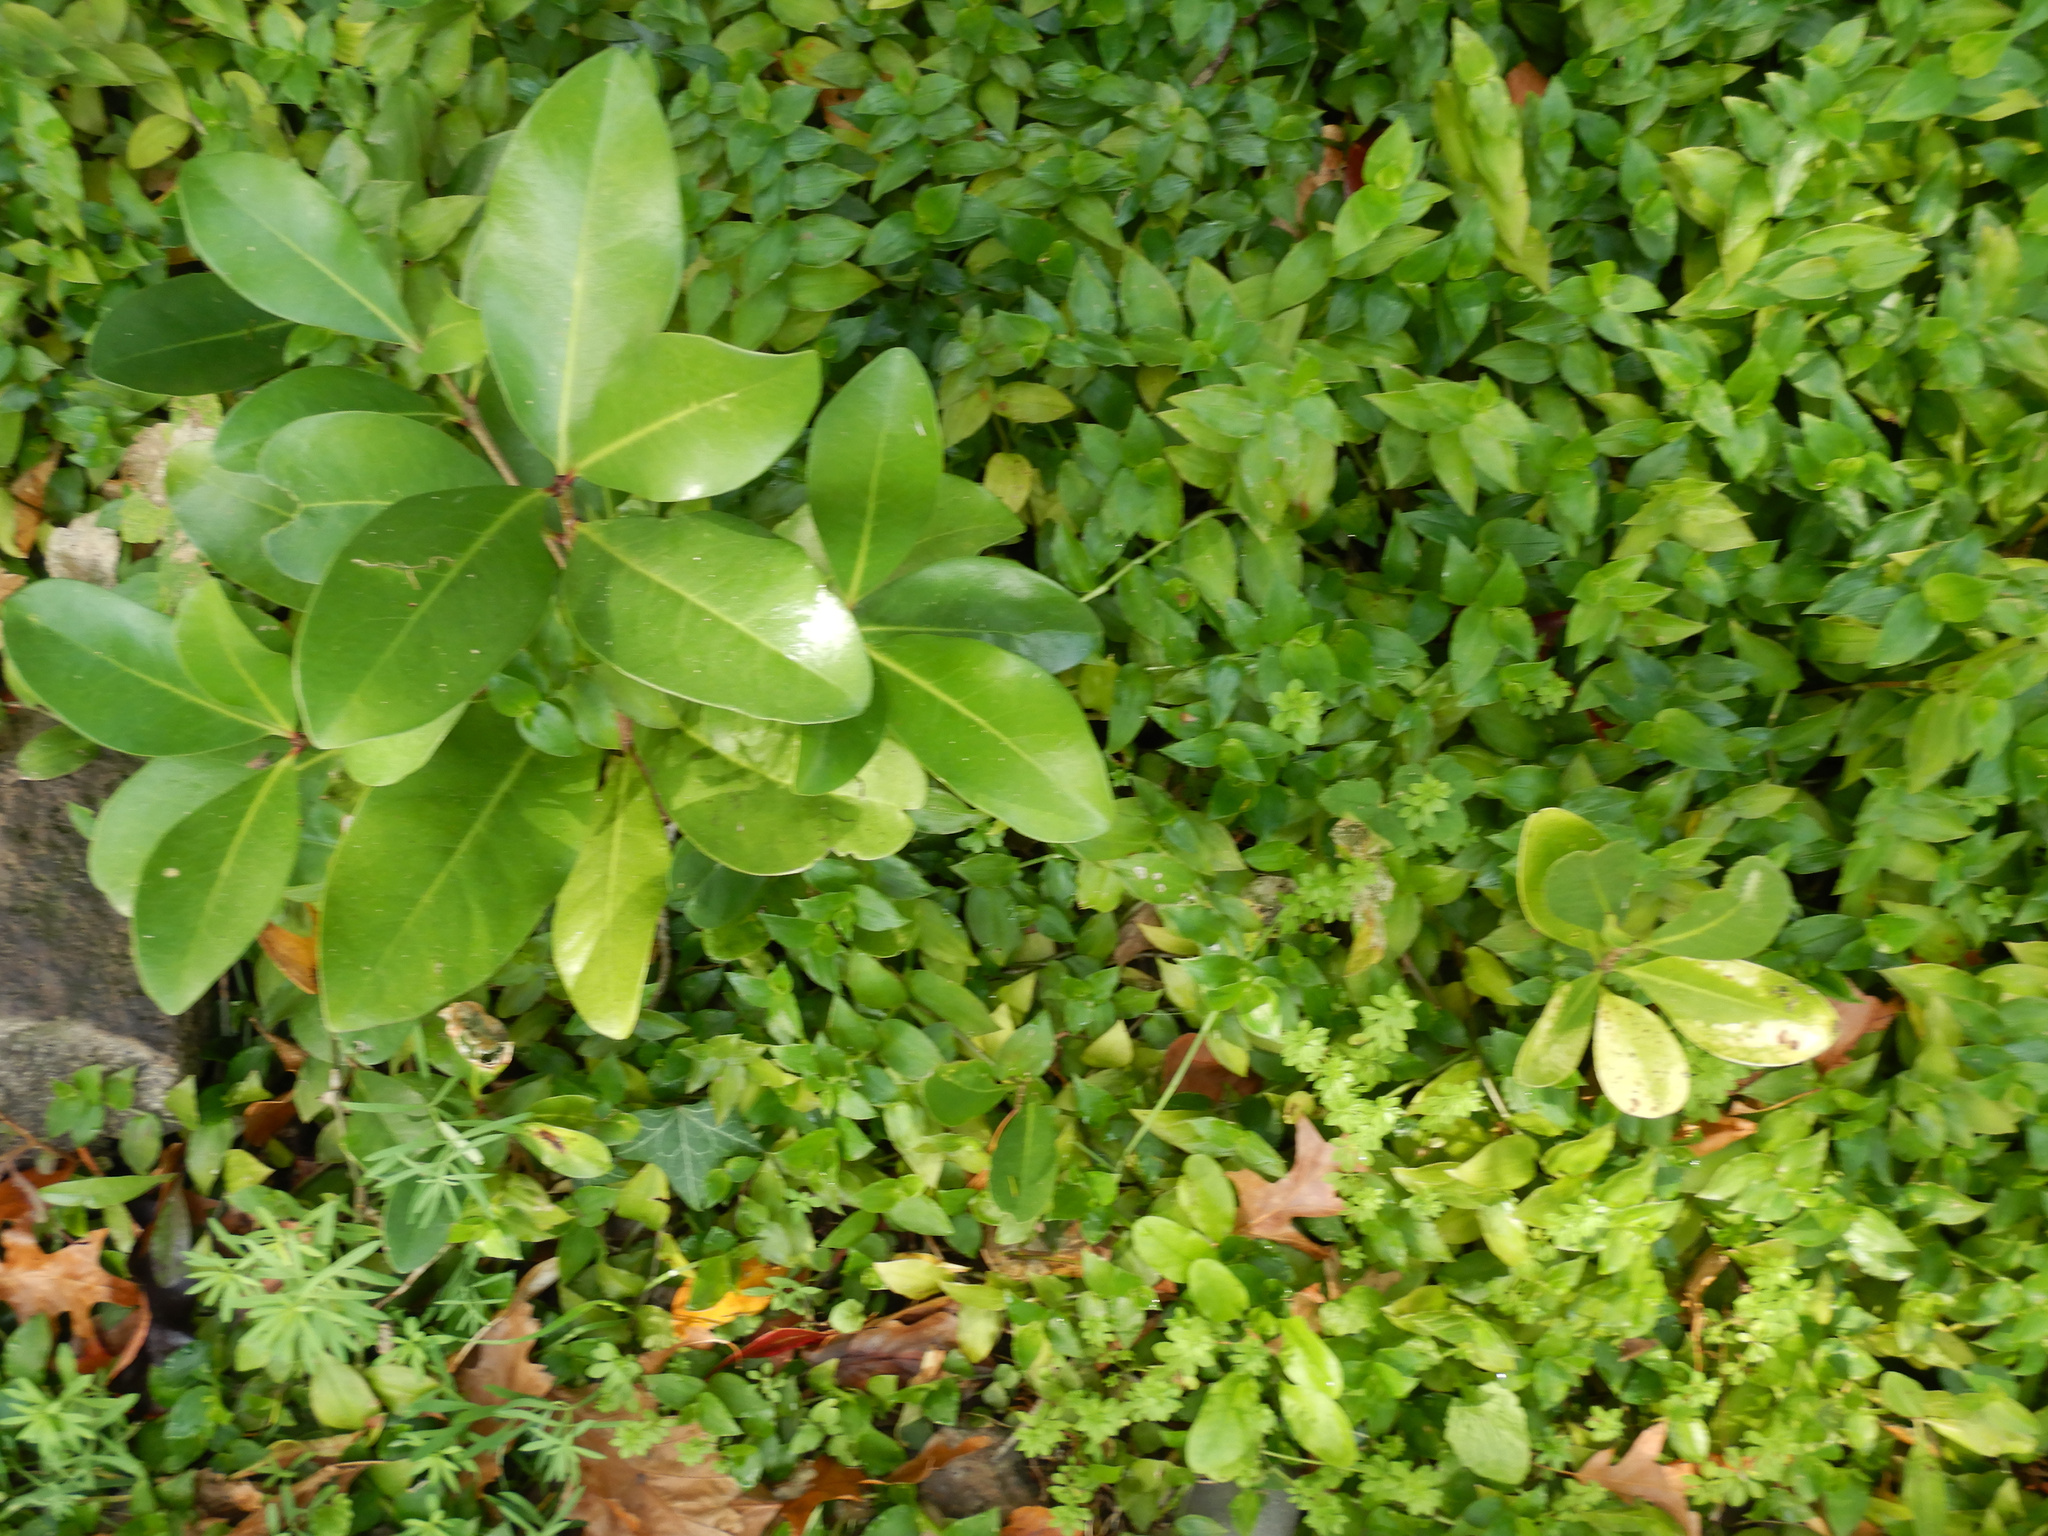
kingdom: Plantae
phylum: Tracheophyta
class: Magnoliopsida
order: Cucurbitales
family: Corynocarpaceae
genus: Corynocarpus
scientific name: Corynocarpus laevigatus
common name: New zealand laurel
